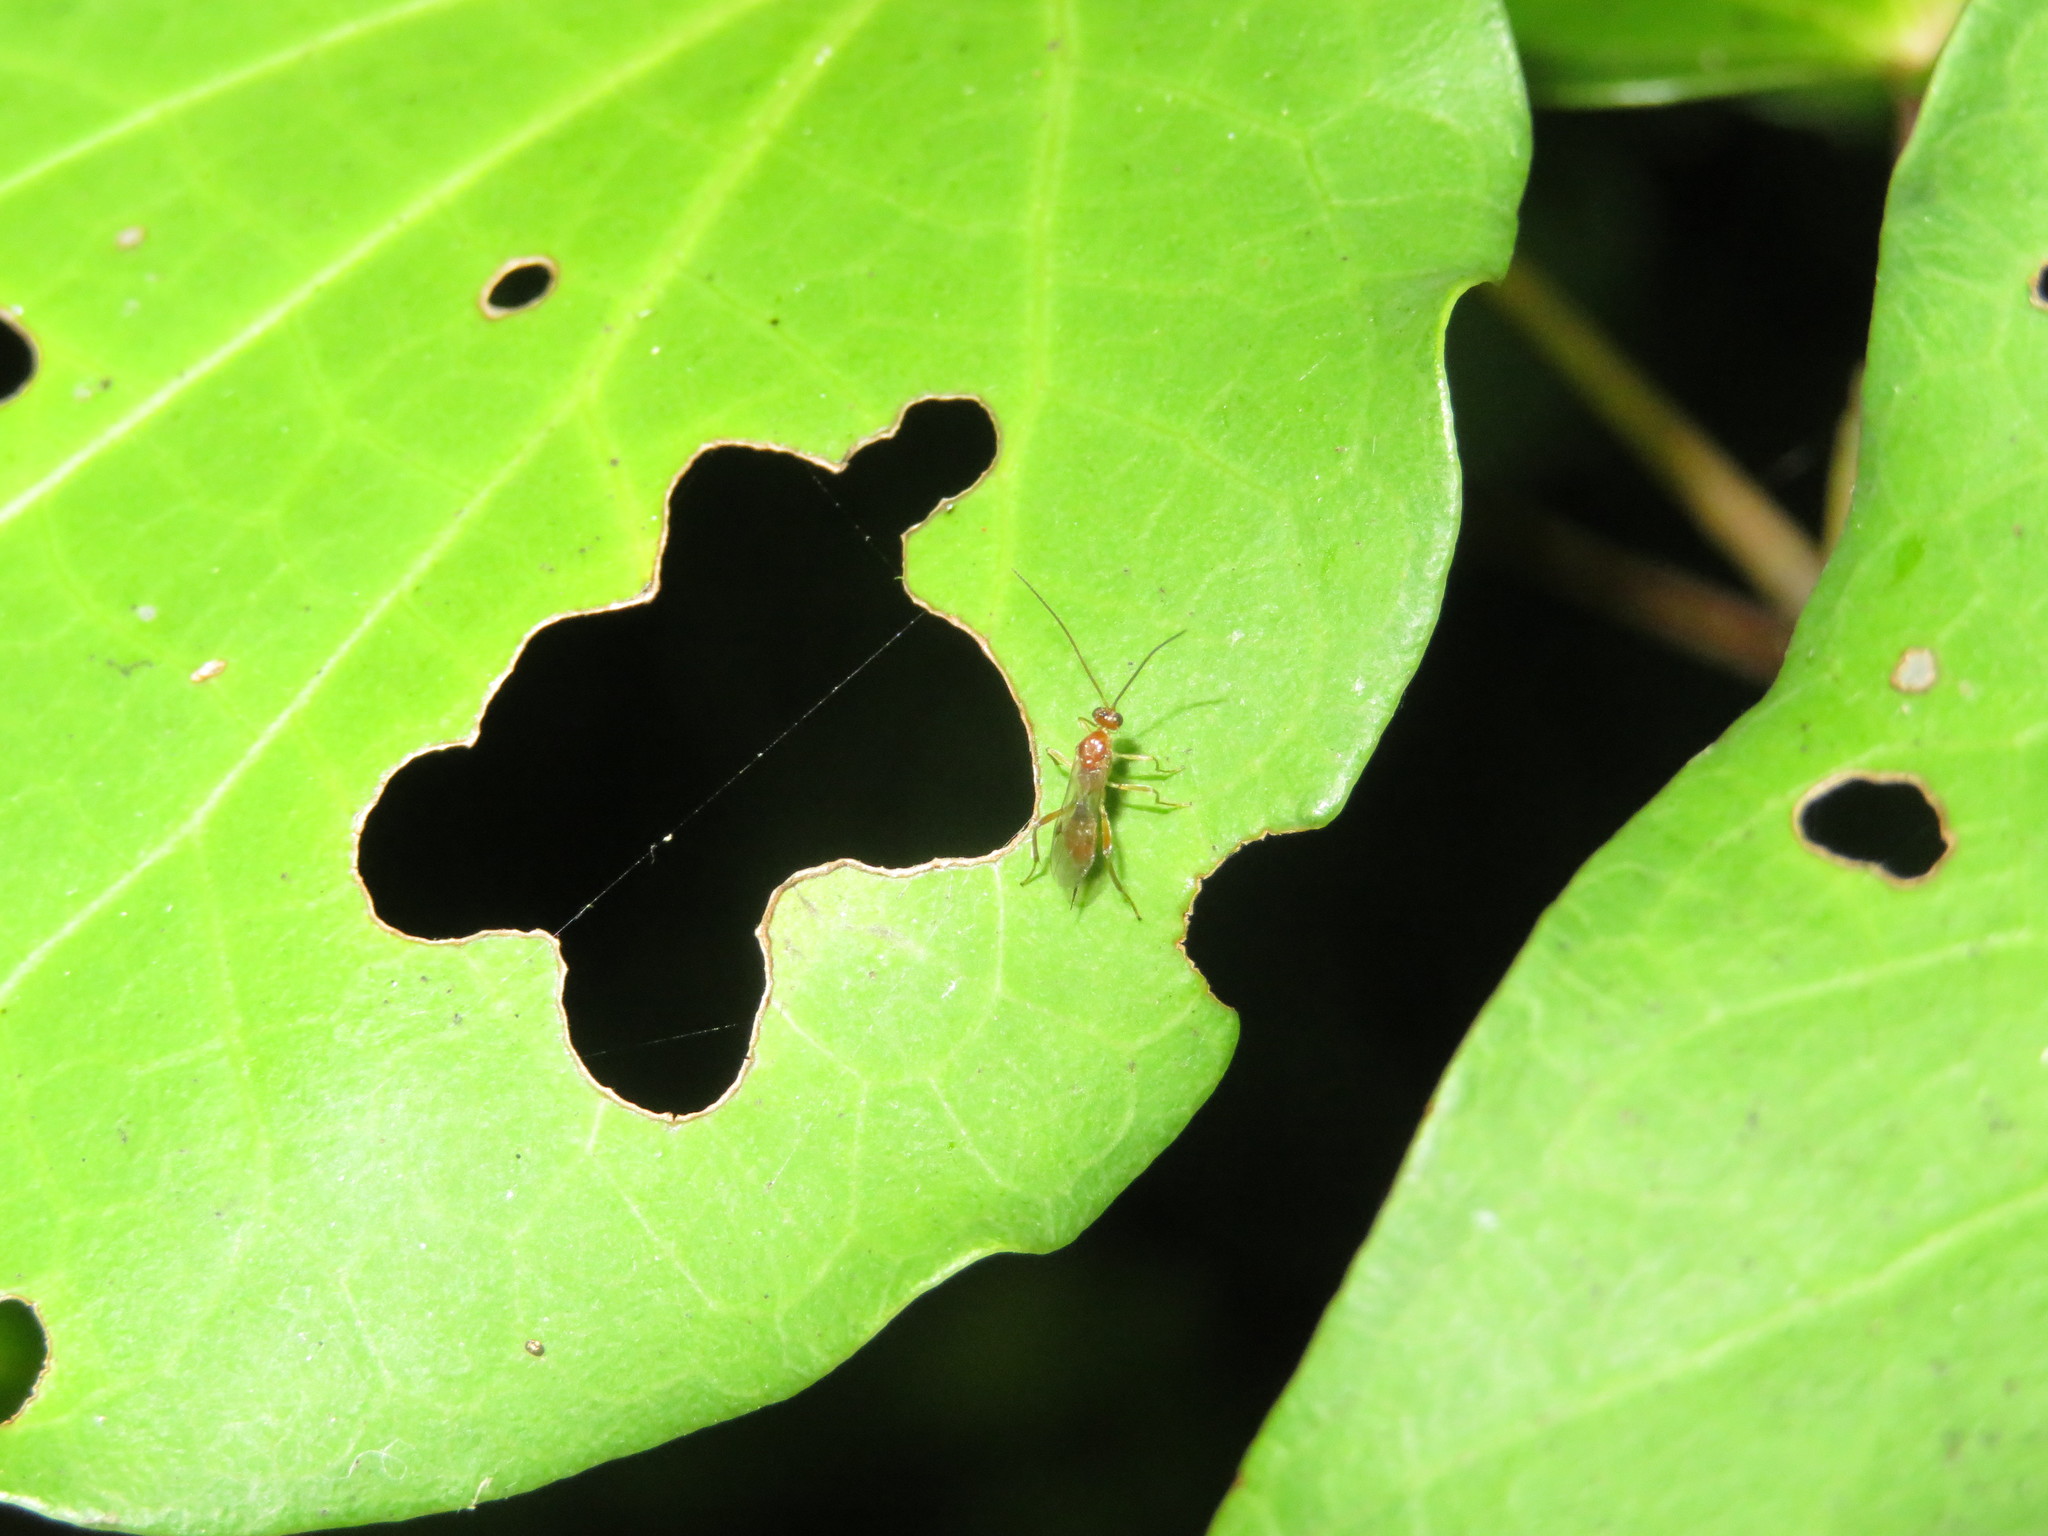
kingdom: Animalia
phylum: Arthropoda
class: Insecta
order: Hymenoptera
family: Braconidae
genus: Meteorus
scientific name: Meteorus pulchricornis
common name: Braconid wasp
